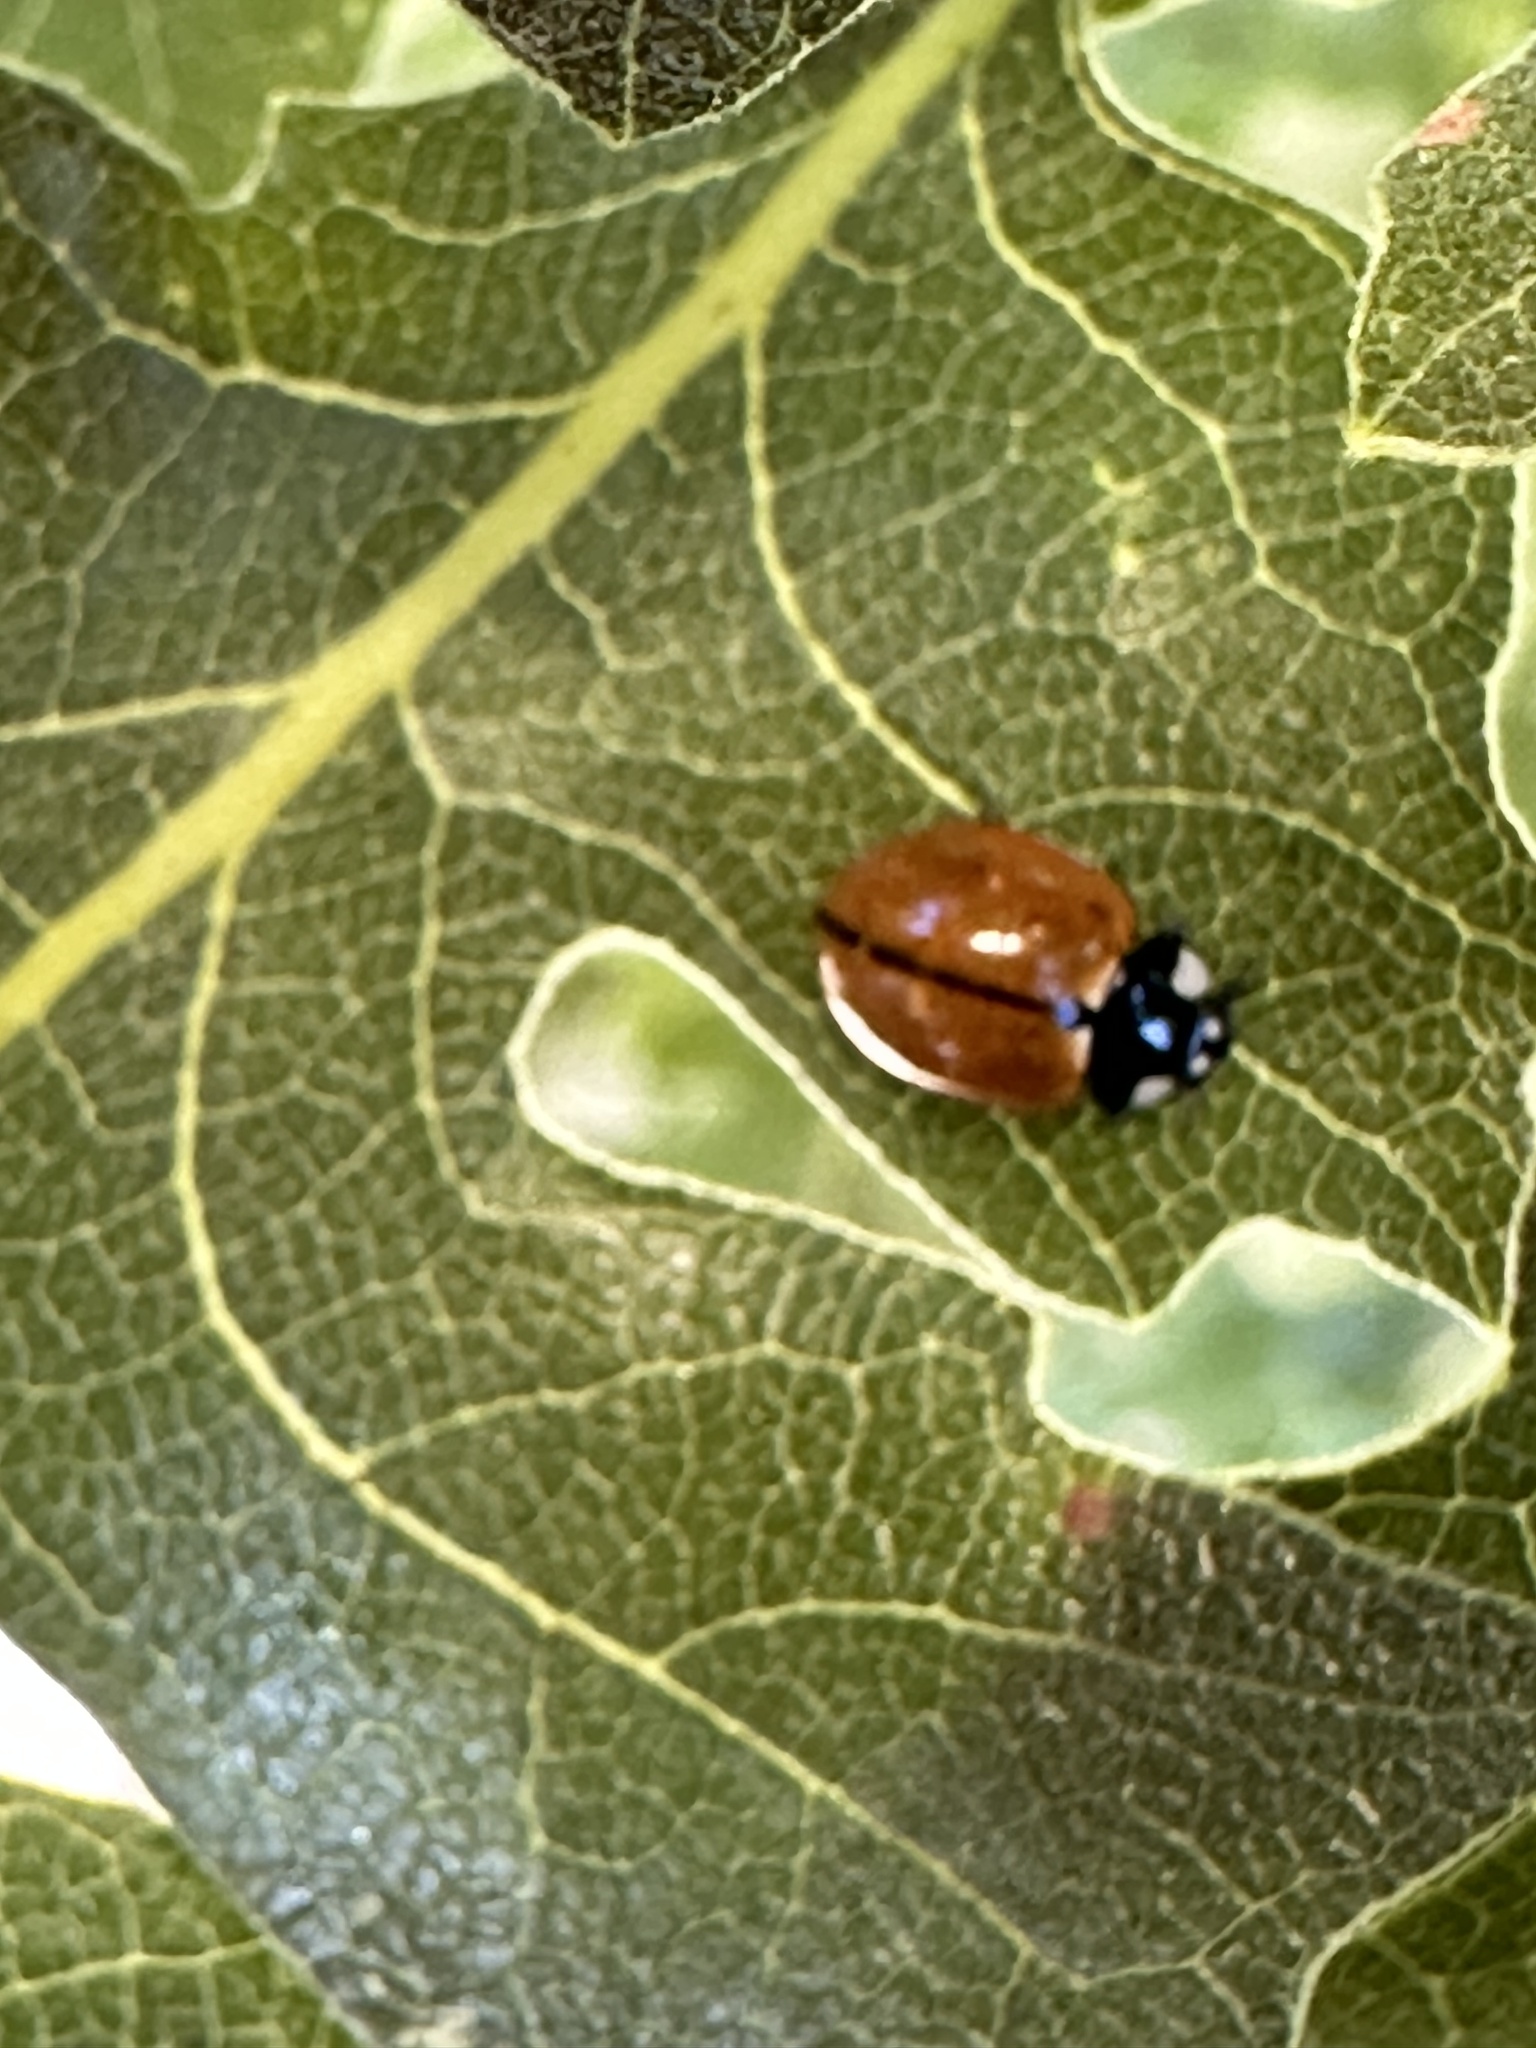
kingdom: Animalia
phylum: Arthropoda
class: Insecta
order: Coleoptera
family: Coccinellidae
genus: Coccinella
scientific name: Coccinella californica
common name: Lady beetle
